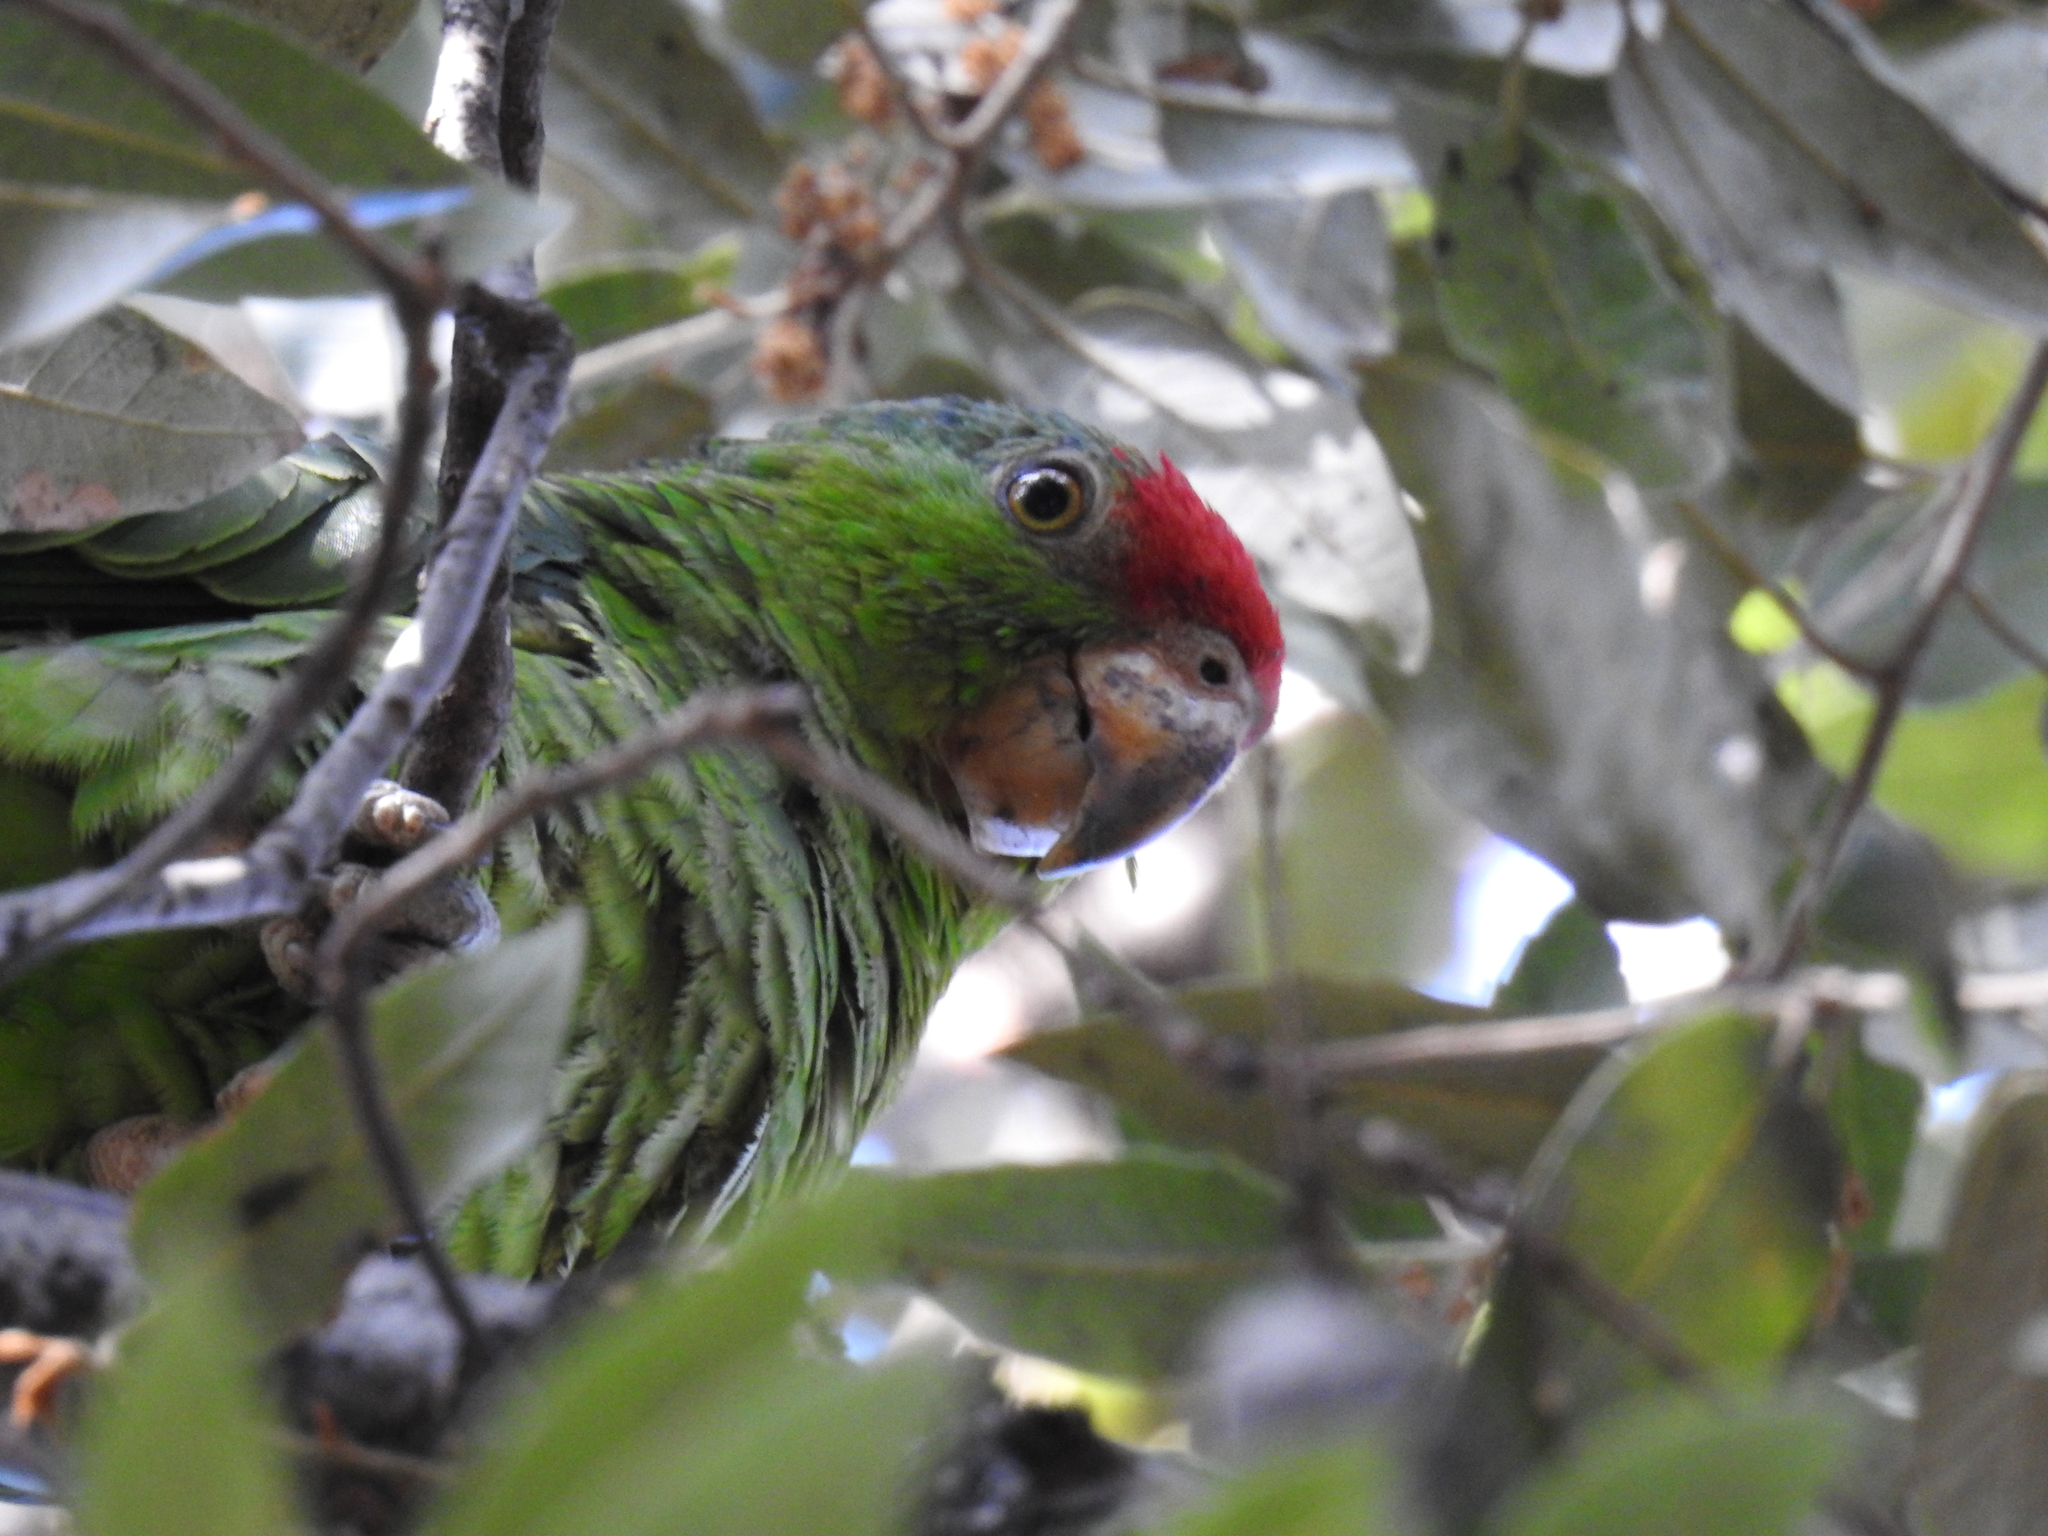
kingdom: Animalia
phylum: Chordata
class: Aves
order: Psittaciformes
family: Psittacidae
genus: Amazona
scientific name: Amazona viridigenalis
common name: Red-crowned amazon
